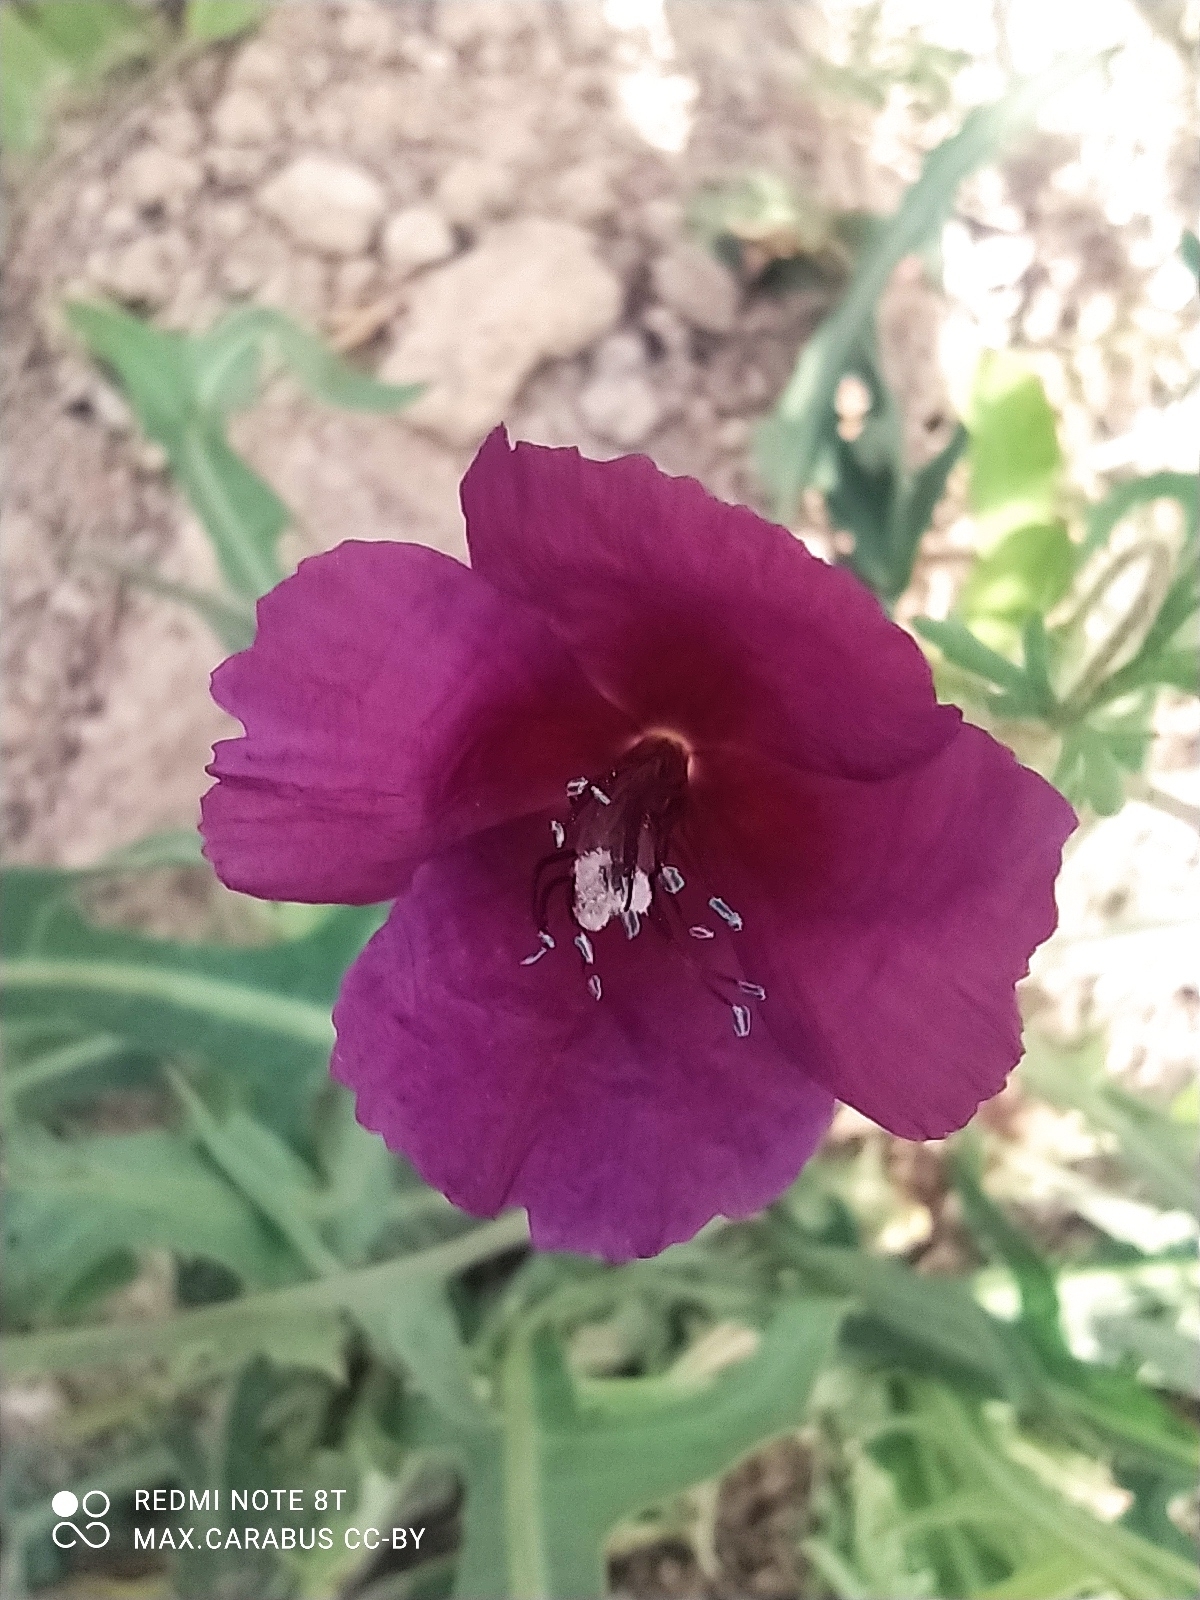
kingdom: Plantae
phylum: Tracheophyta
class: Magnoliopsida
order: Ranunculales
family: Papaveraceae
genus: Roemeria
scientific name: Roemeria hybrida
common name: Violet horned-poppy
